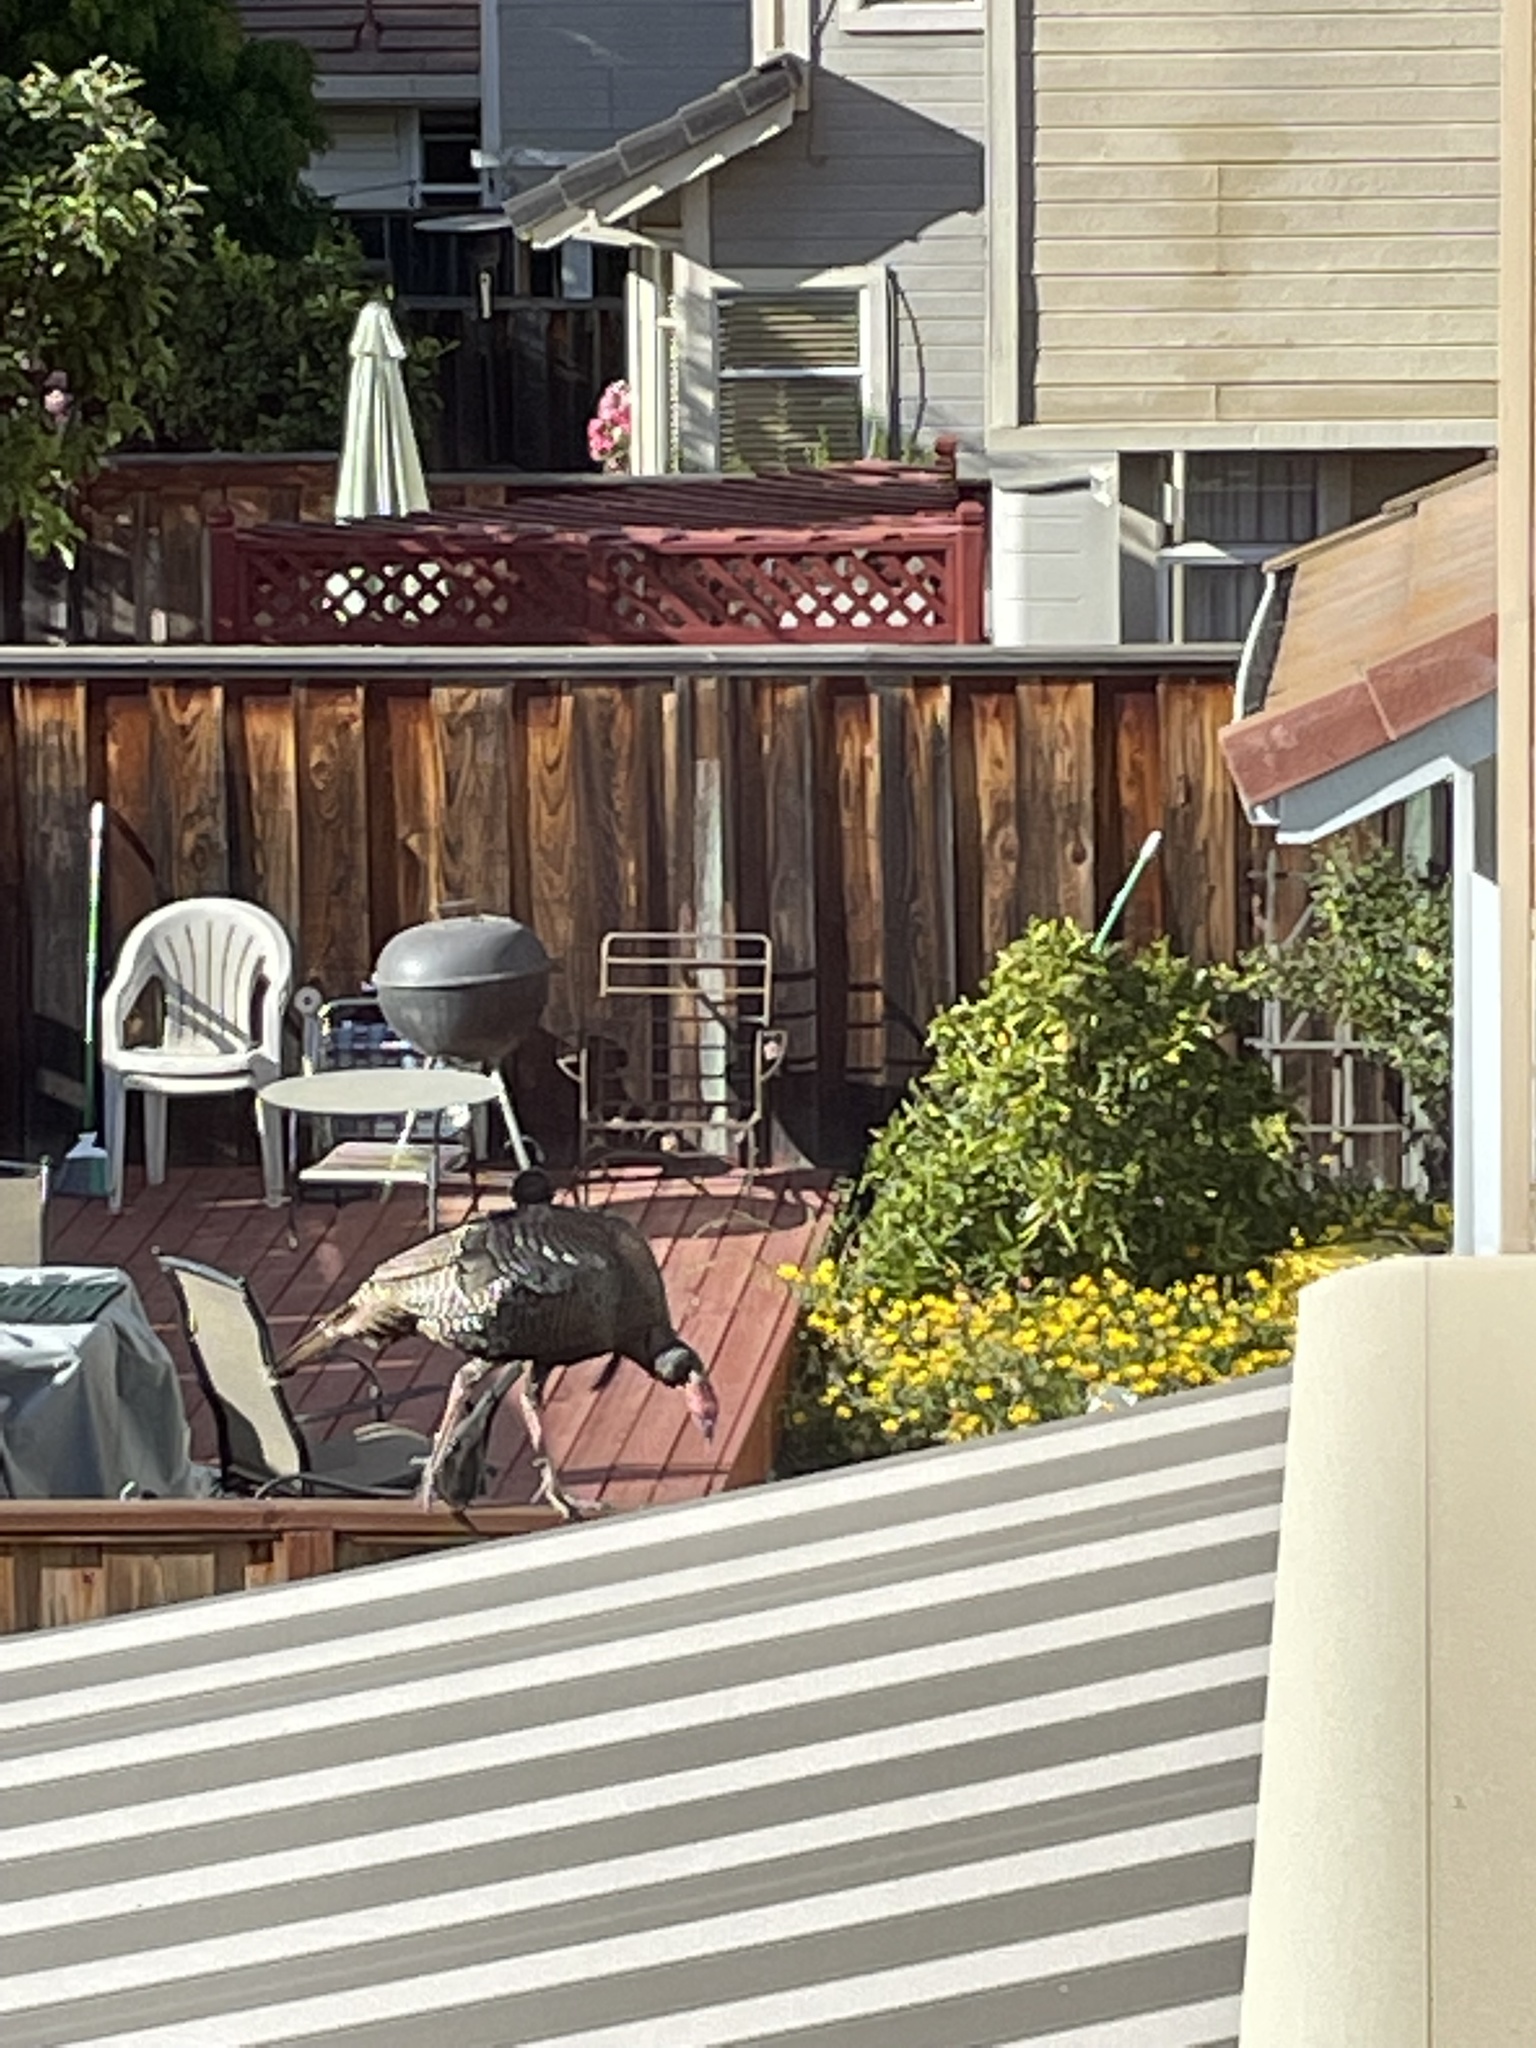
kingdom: Animalia
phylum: Chordata
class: Aves
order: Galliformes
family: Phasianidae
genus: Meleagris
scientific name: Meleagris gallopavo
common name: Wild turkey
